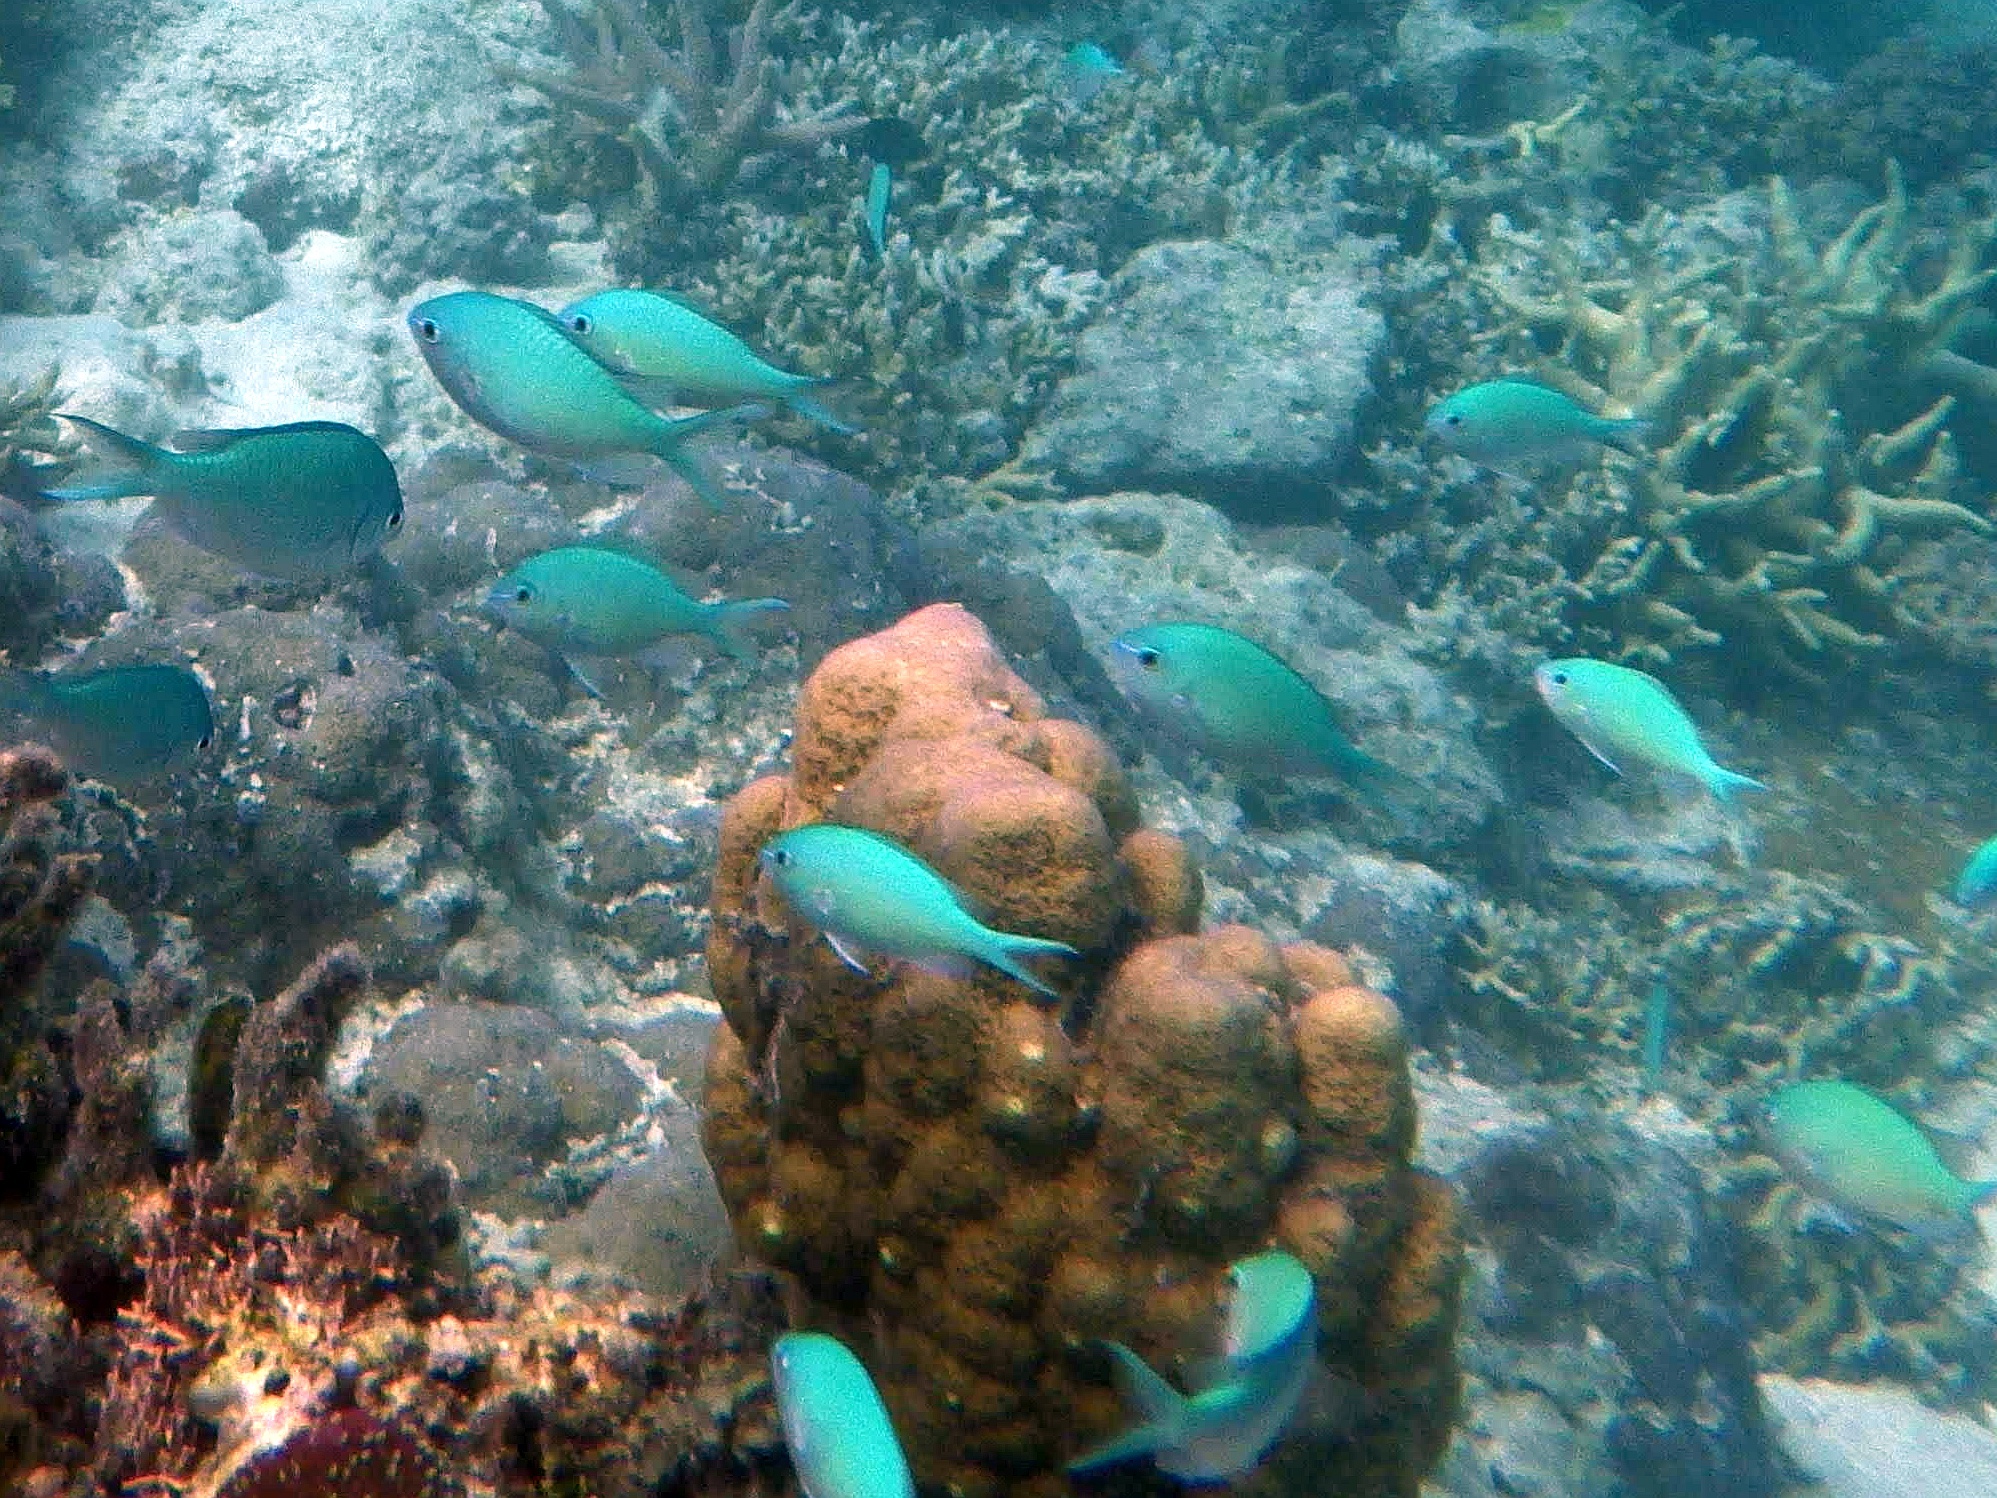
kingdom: Animalia
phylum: Chordata
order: Perciformes
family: Pomacentridae
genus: Chromis
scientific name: Chromis viridis
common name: Blue-green chromis
